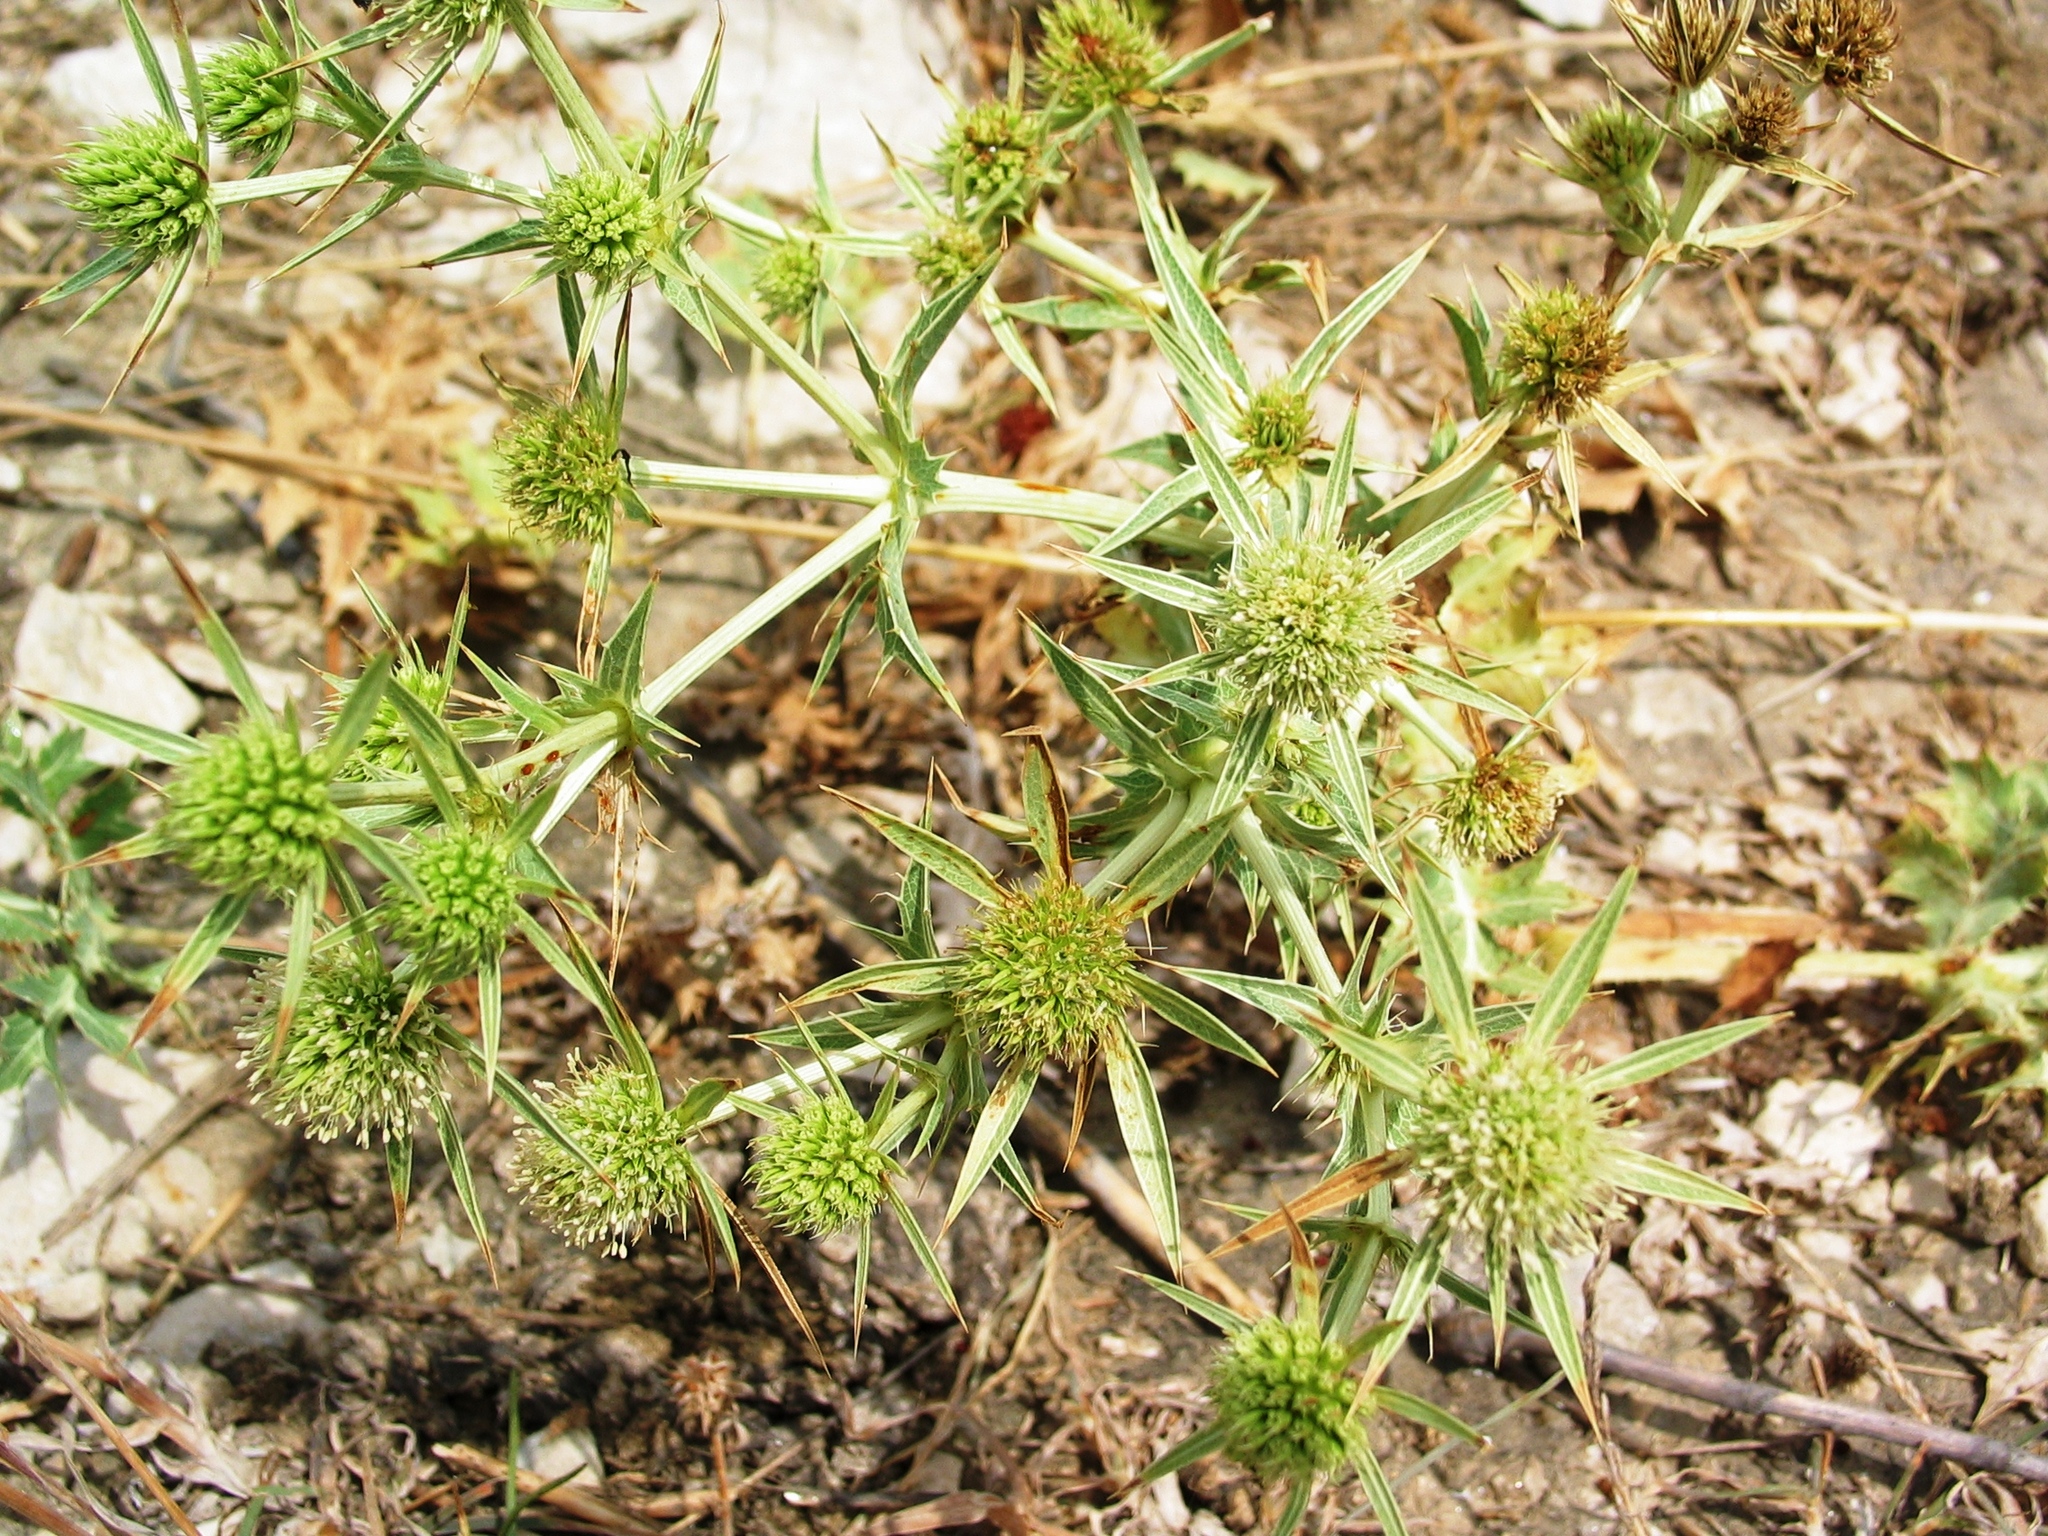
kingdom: Plantae
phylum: Tracheophyta
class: Magnoliopsida
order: Apiales
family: Apiaceae
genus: Eryngium
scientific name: Eryngium campestre
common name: Field eryngo
